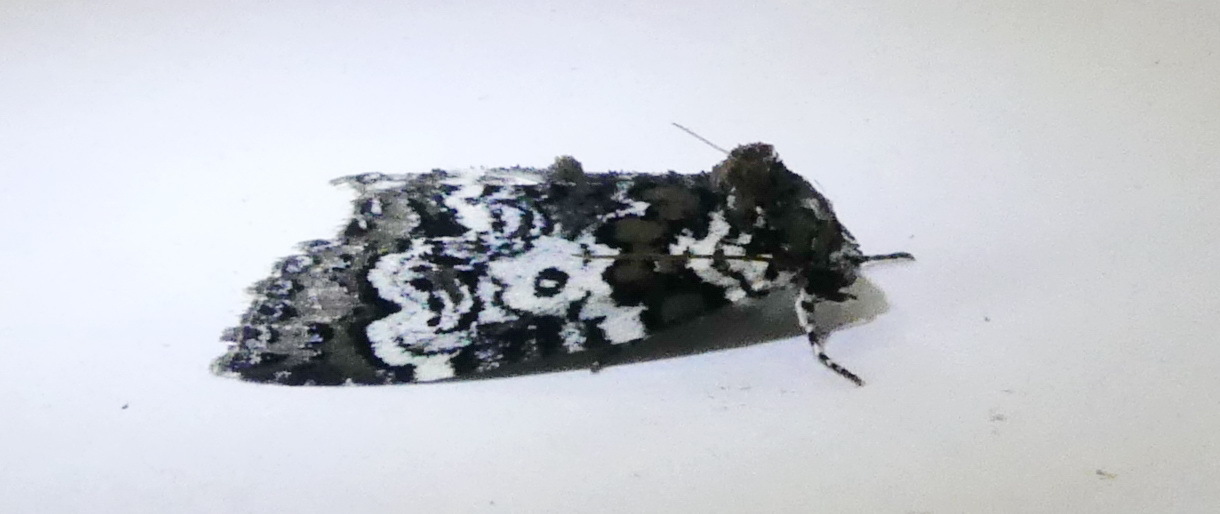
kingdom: Animalia
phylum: Arthropoda
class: Insecta
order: Lepidoptera
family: Noctuidae
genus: Cerma
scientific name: Cerma cora
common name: Bird dropping moth
